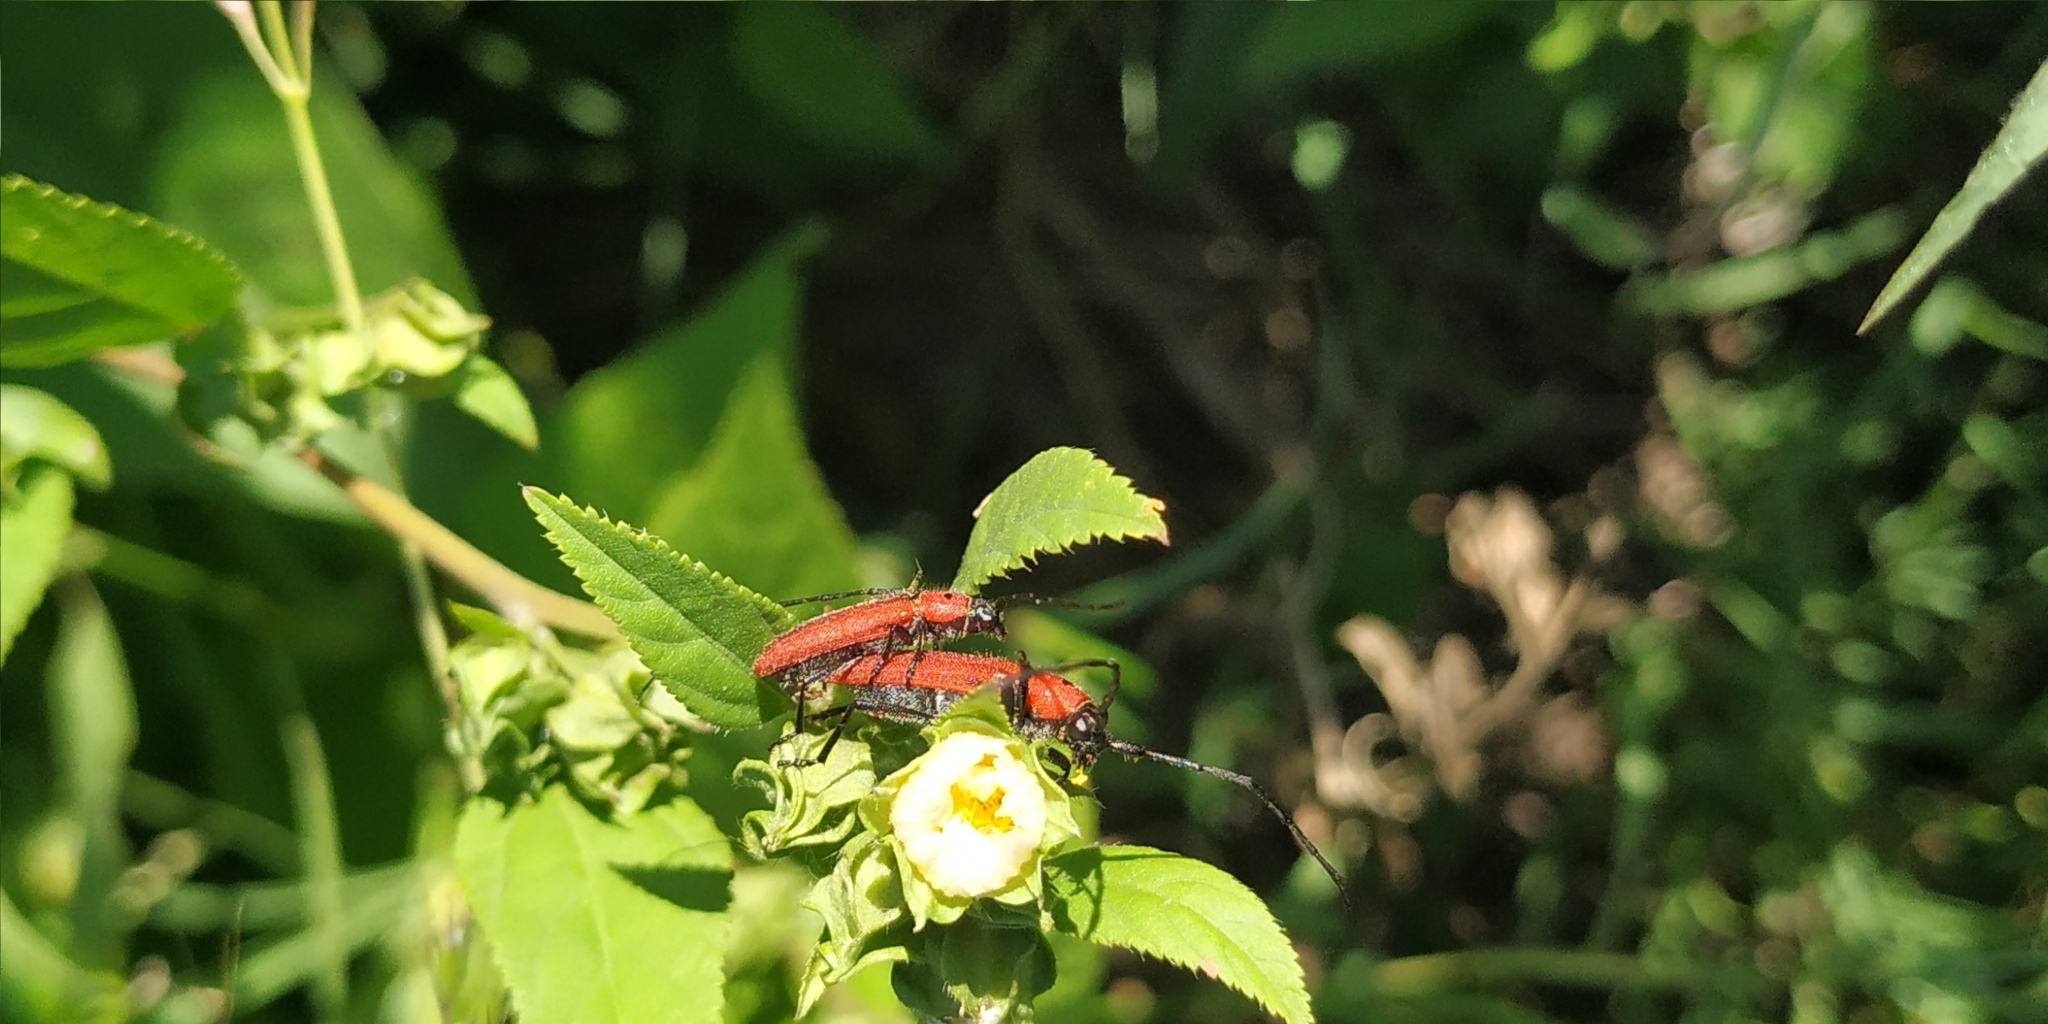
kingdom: Animalia
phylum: Arthropoda
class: Insecta
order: Coleoptera
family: Cerambycidae
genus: Tylosis
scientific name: Tylosis oculatus
